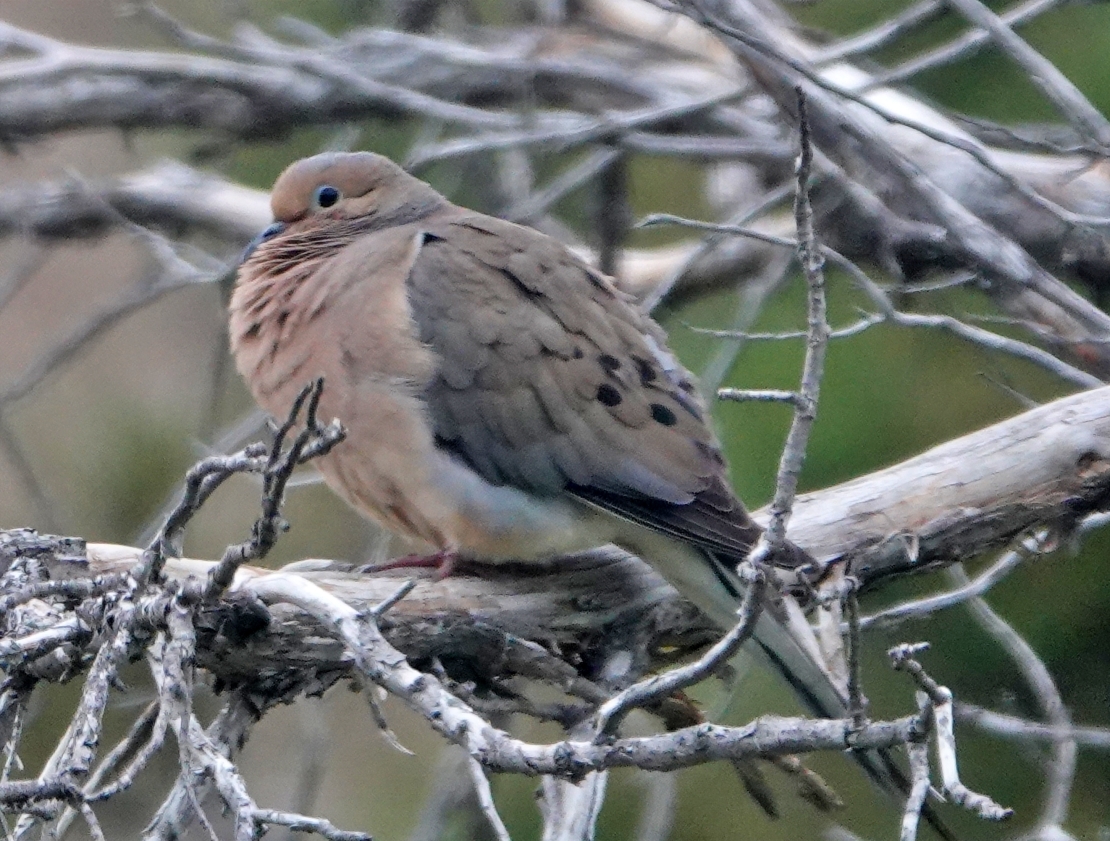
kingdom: Animalia
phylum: Chordata
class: Aves
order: Columbiformes
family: Columbidae
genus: Zenaida
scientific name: Zenaida macroura
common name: Mourning dove
